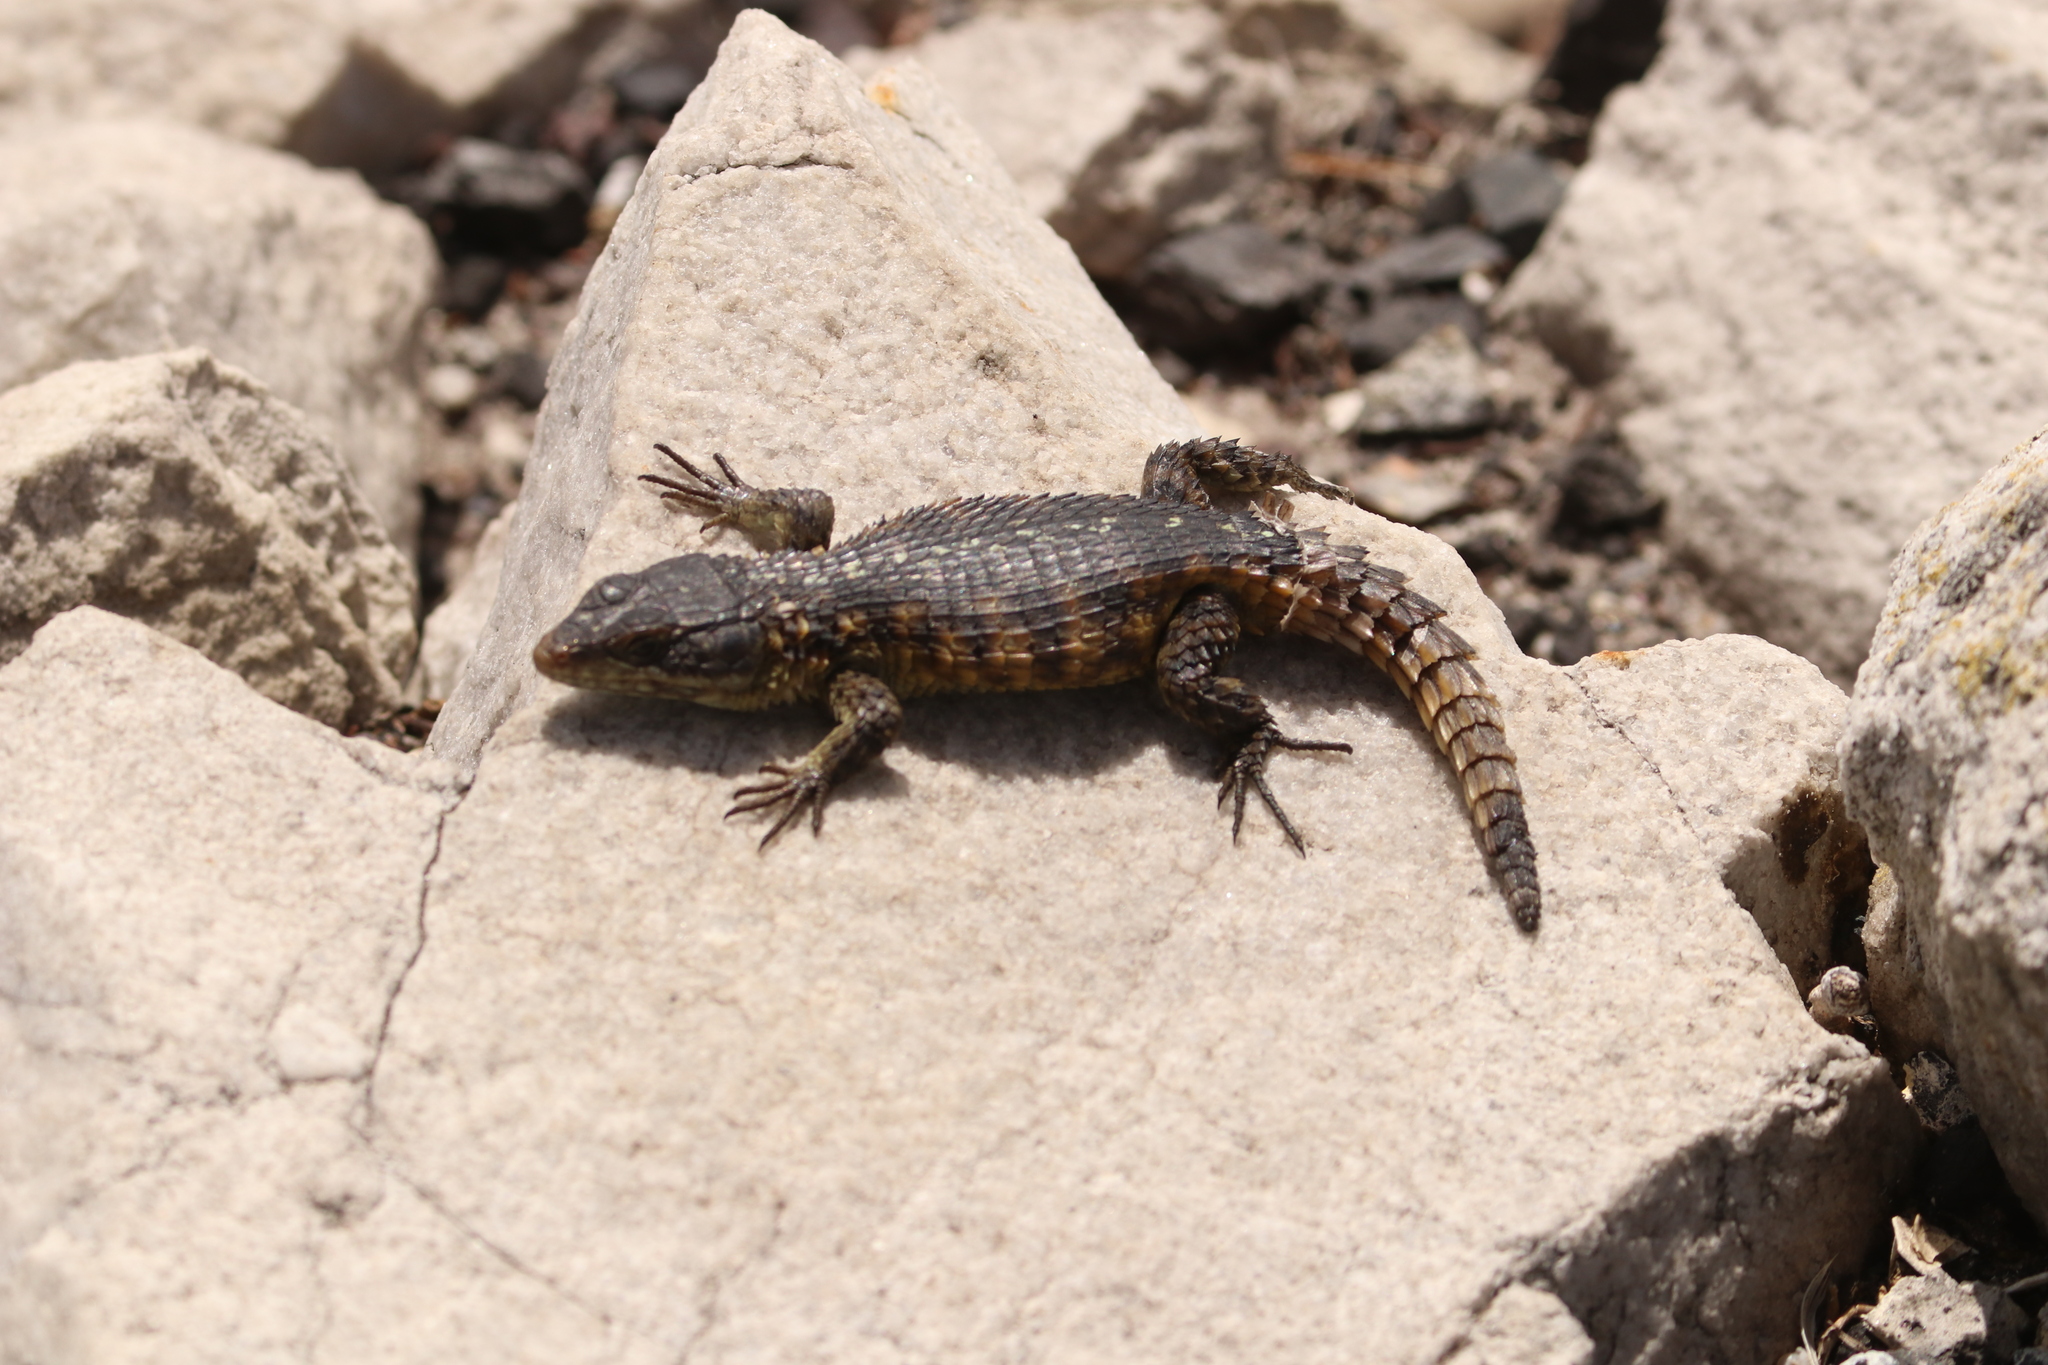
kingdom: Animalia
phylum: Chordata
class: Squamata
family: Cordylidae
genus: Cordylus
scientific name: Cordylus cordylus
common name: Cape girdled lizard
